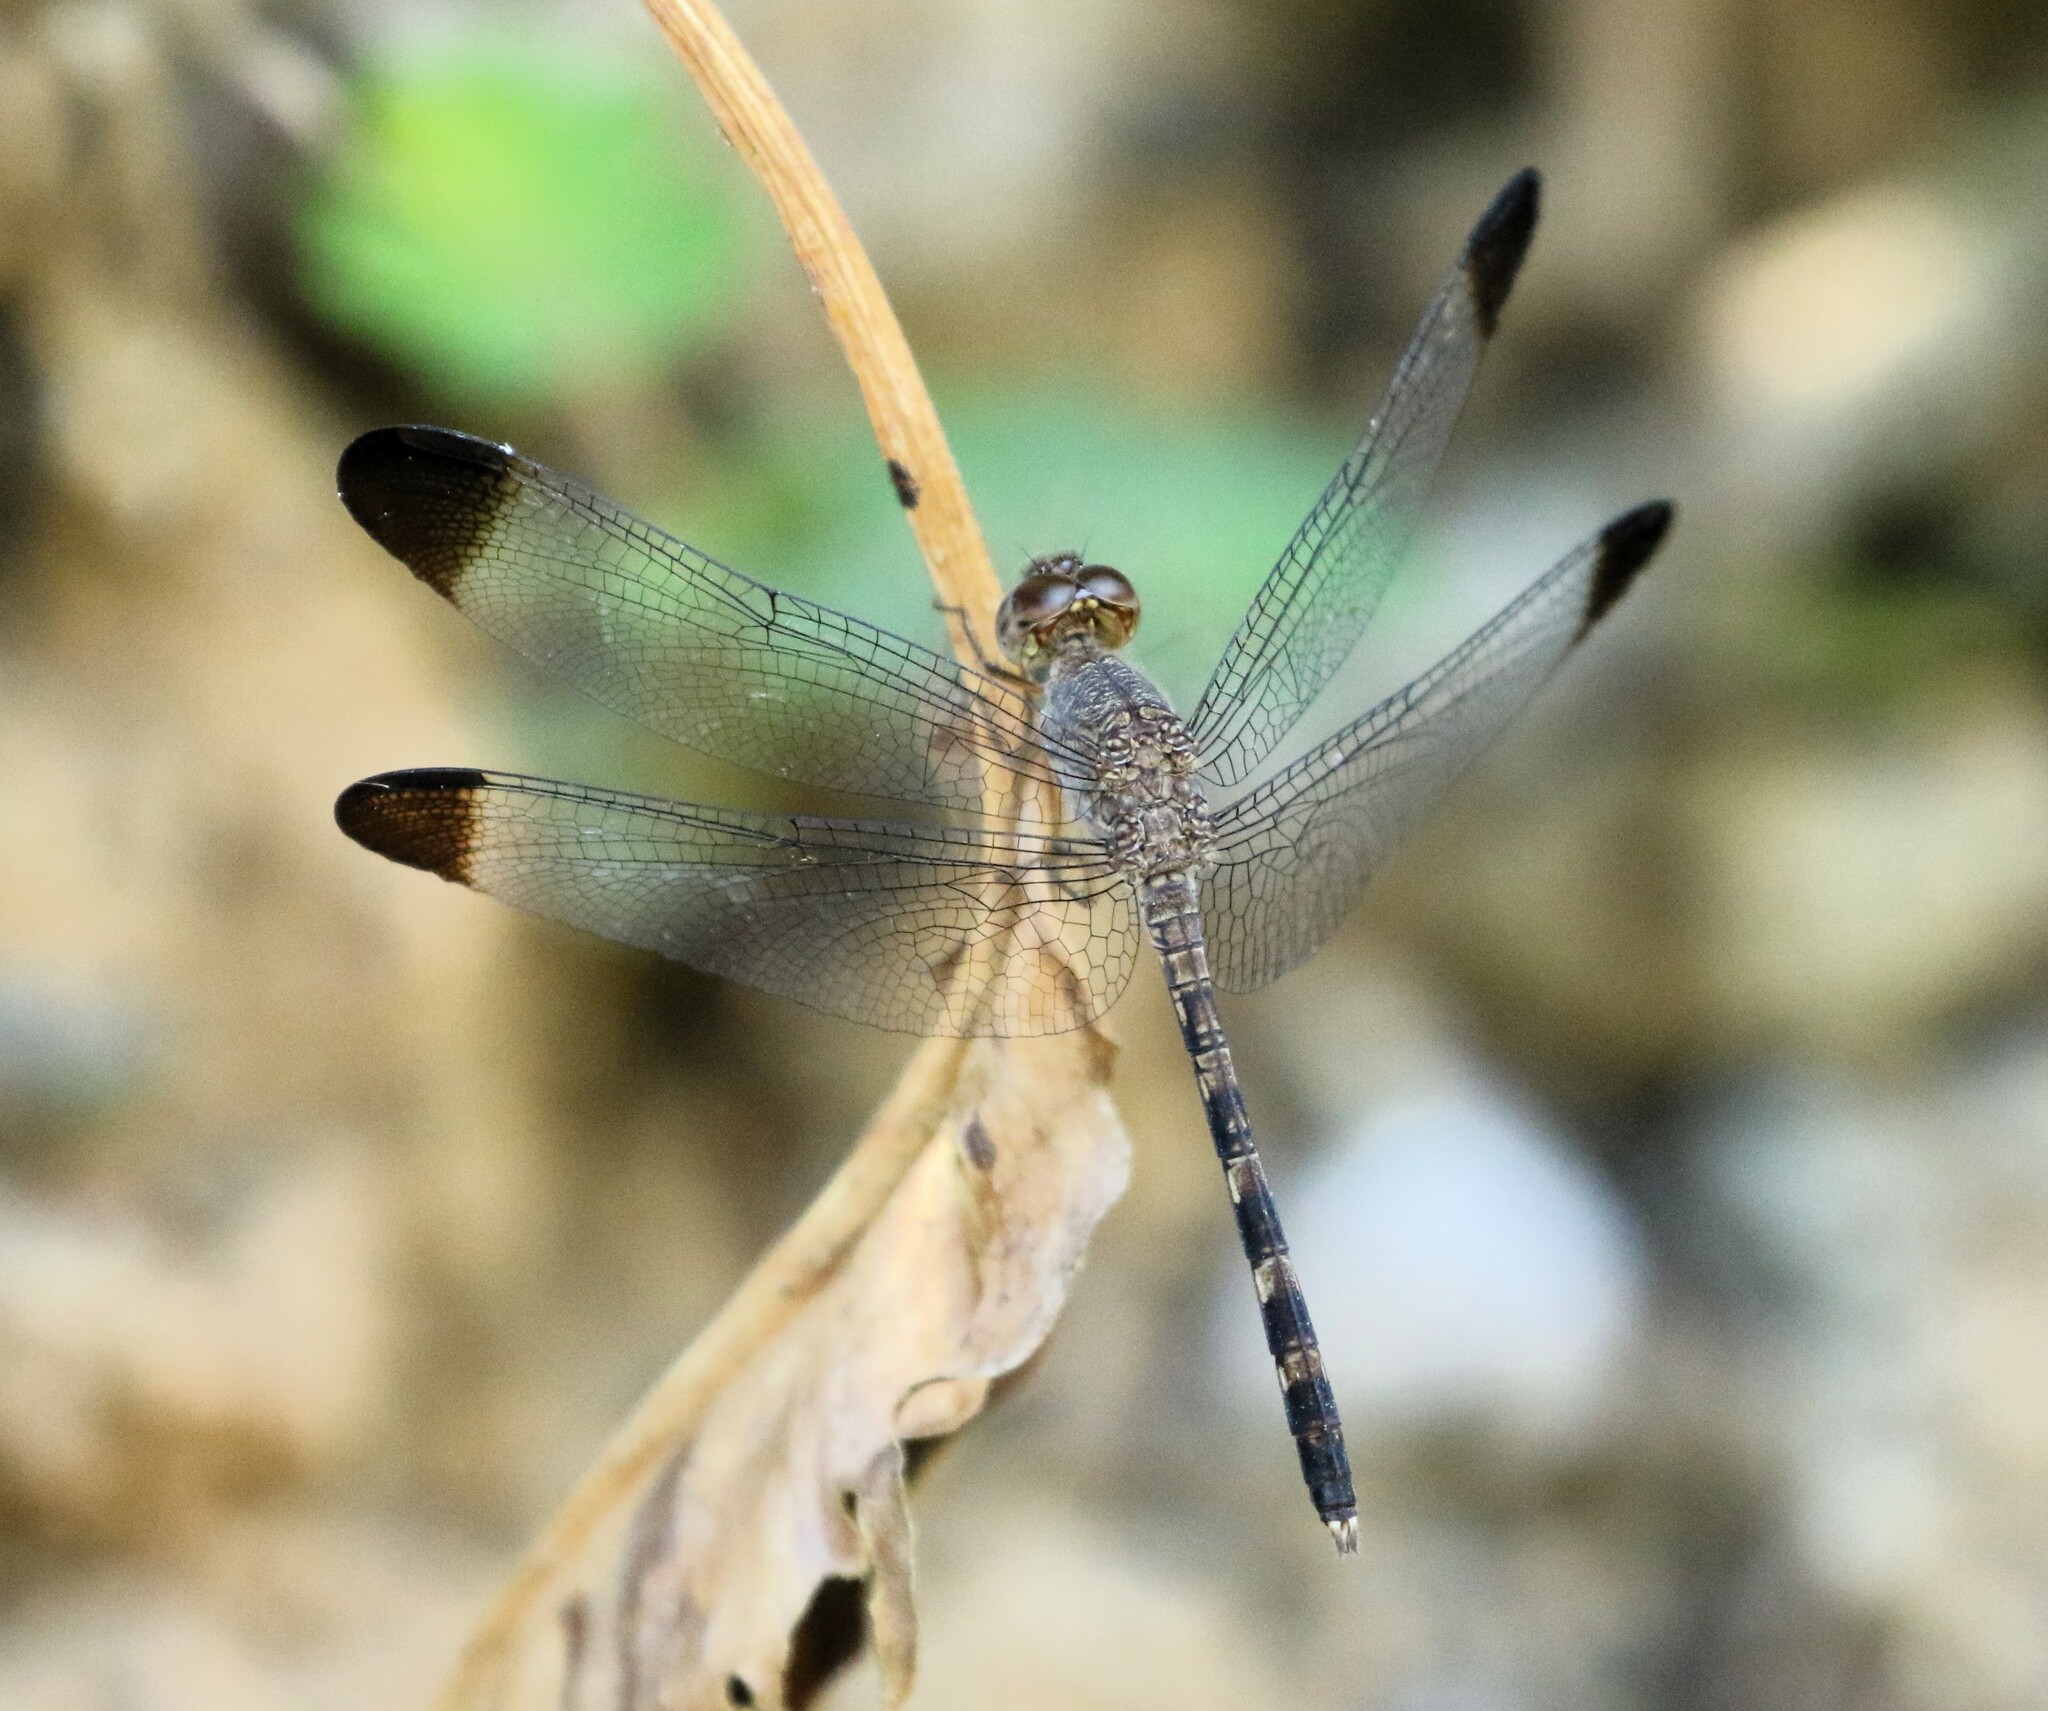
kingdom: Animalia
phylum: Arthropoda
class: Insecta
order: Odonata
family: Libellulidae
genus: Uracis
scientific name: Uracis imbuta
